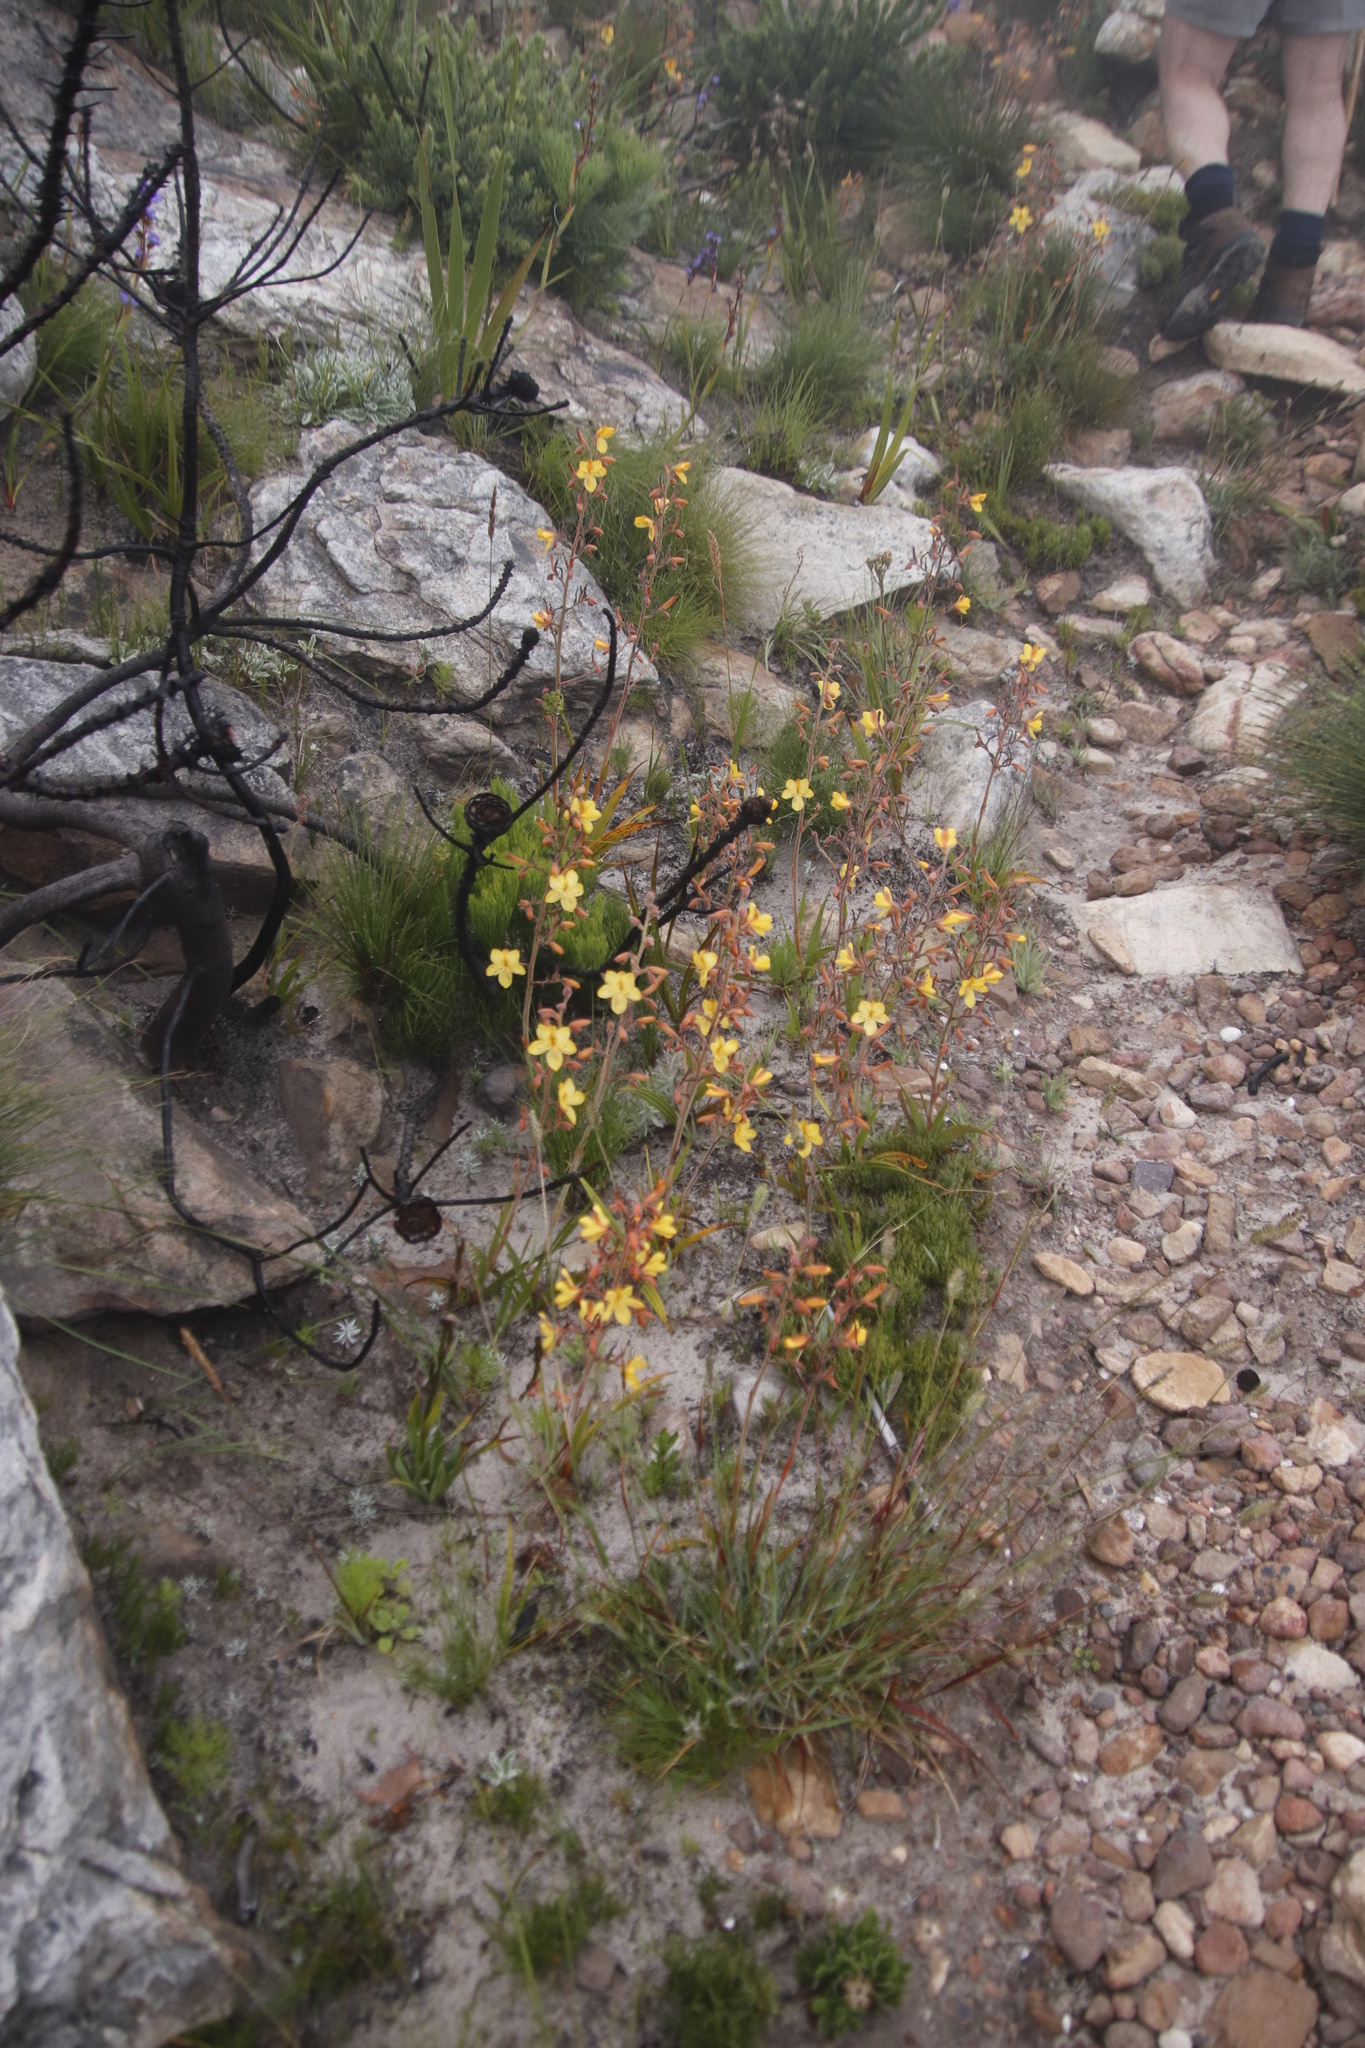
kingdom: Plantae
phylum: Tracheophyta
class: Liliopsida
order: Commelinales
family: Haemodoraceae
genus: Wachendorfia
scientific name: Wachendorfia paniculata
